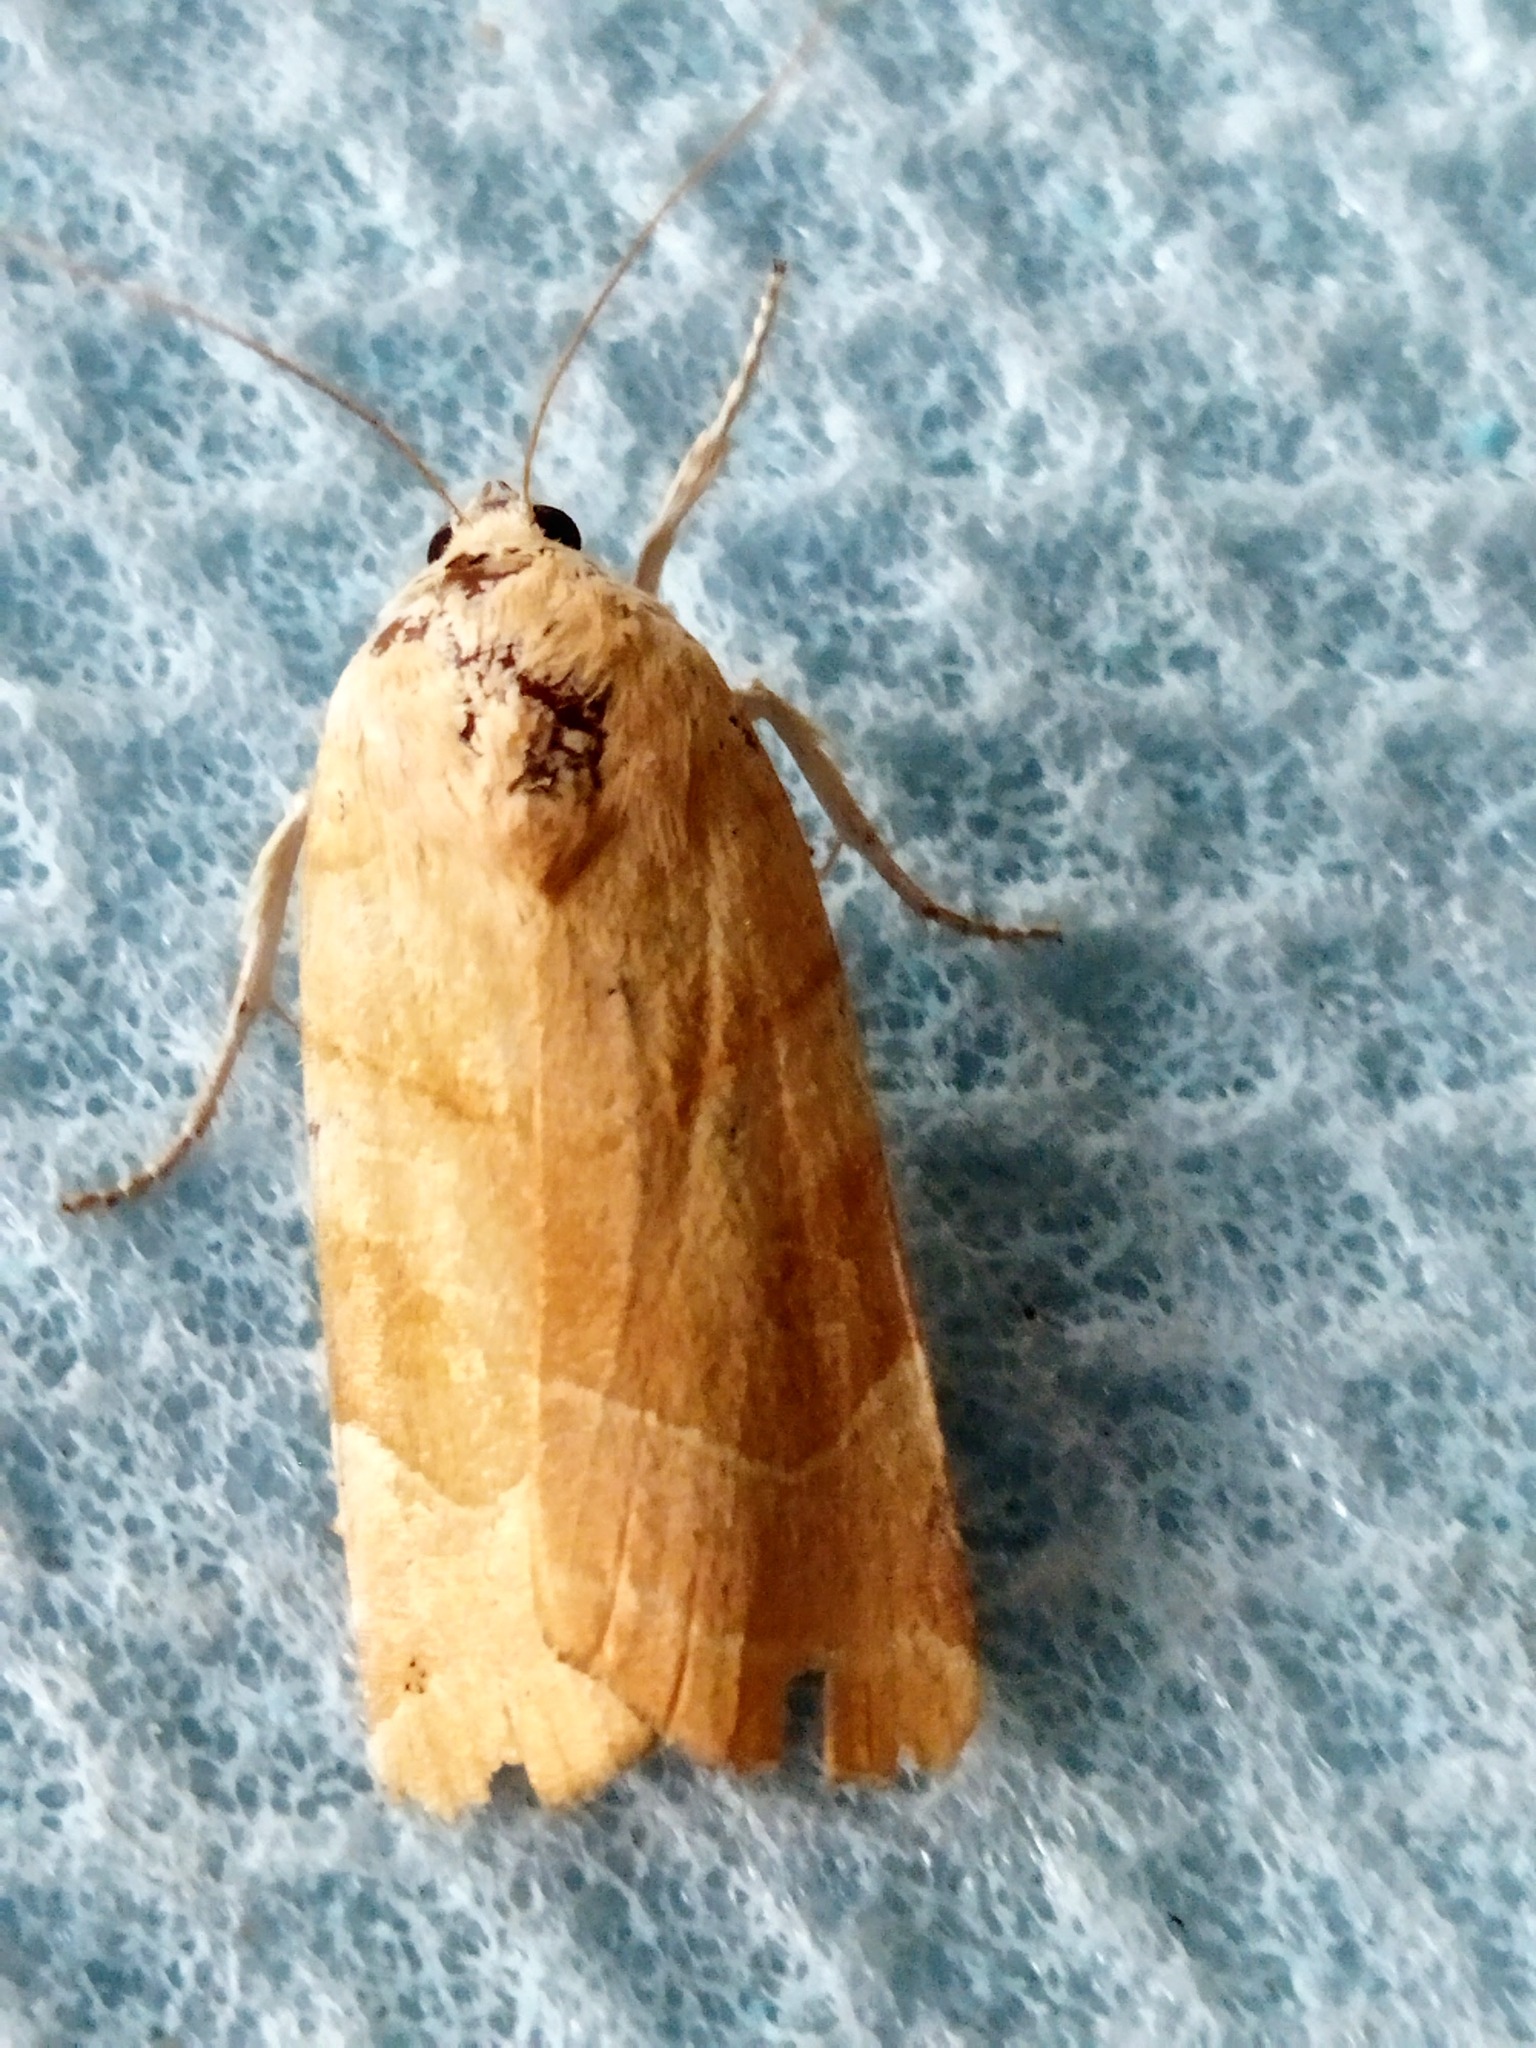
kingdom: Animalia
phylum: Arthropoda
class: Insecta
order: Lepidoptera
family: Noctuidae
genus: Noctua
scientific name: Noctua fimbriata
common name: Broad-bordered yellow underwing
